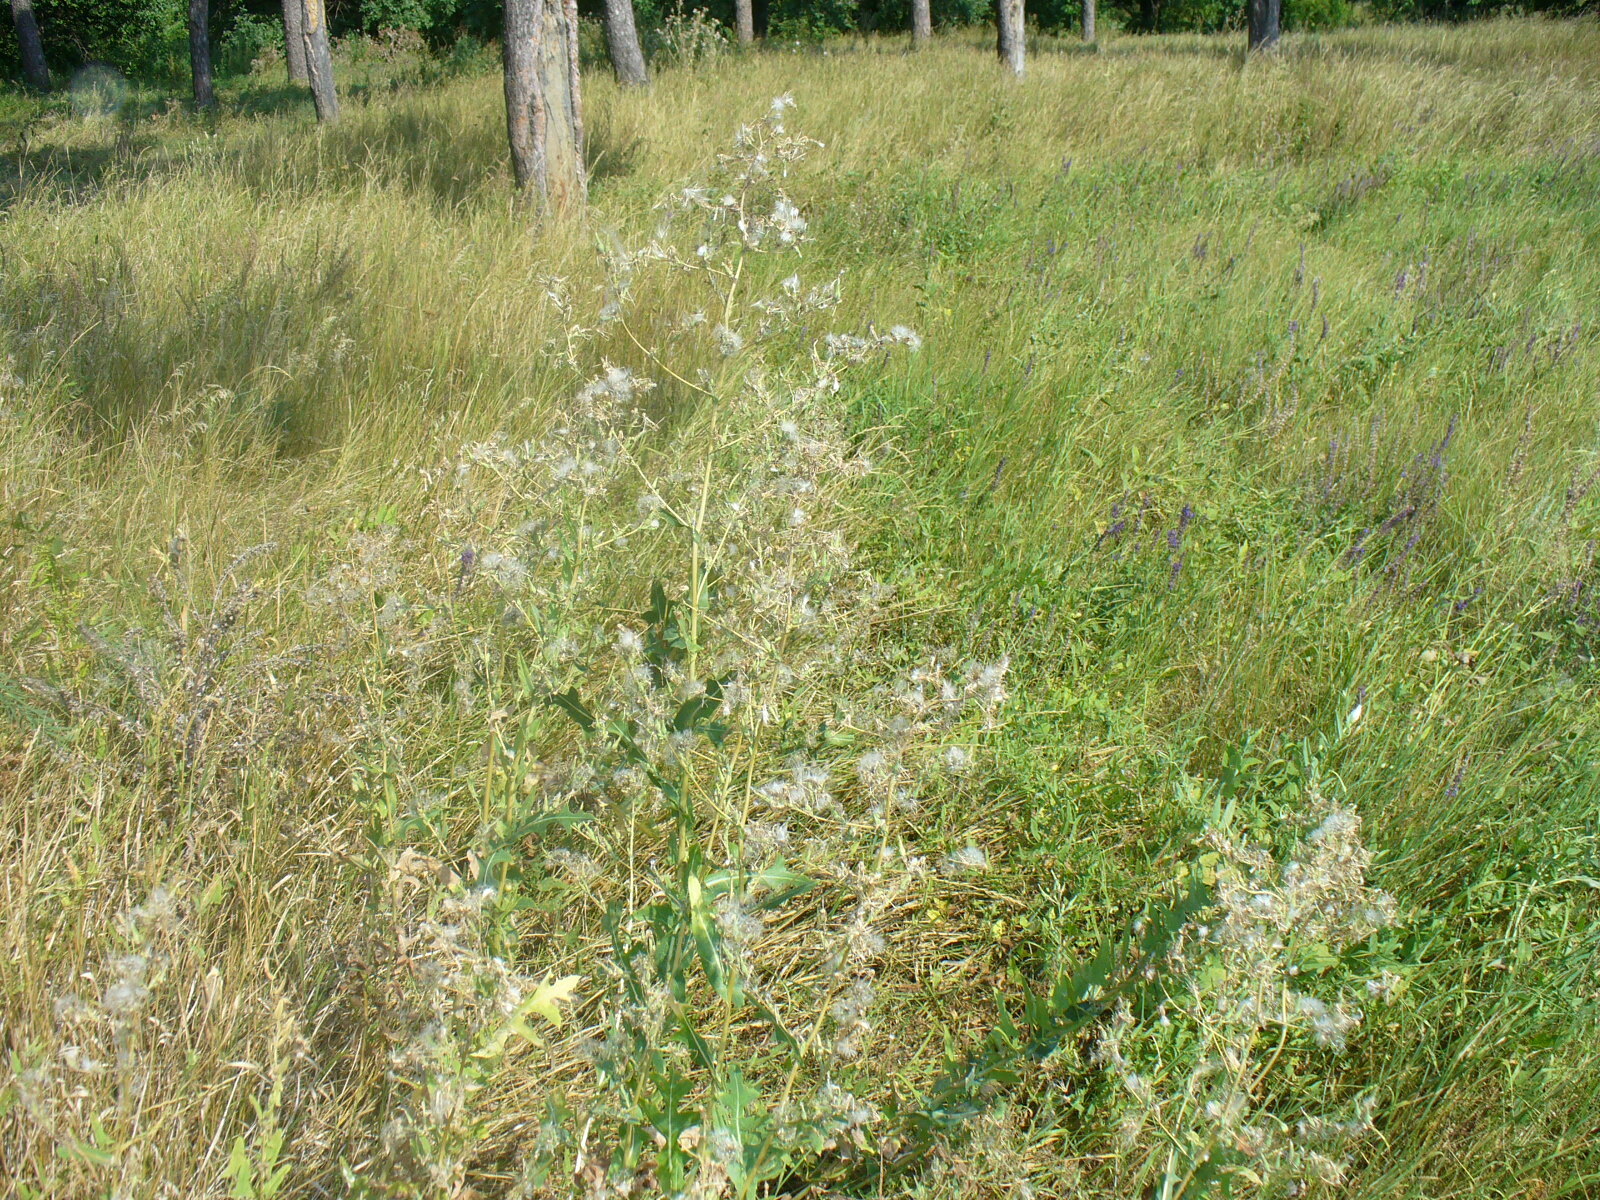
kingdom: Plantae
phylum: Tracheophyta
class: Magnoliopsida
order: Asterales
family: Asteraceae
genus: Lactuca
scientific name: Lactuca serriola
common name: Prickly lettuce
